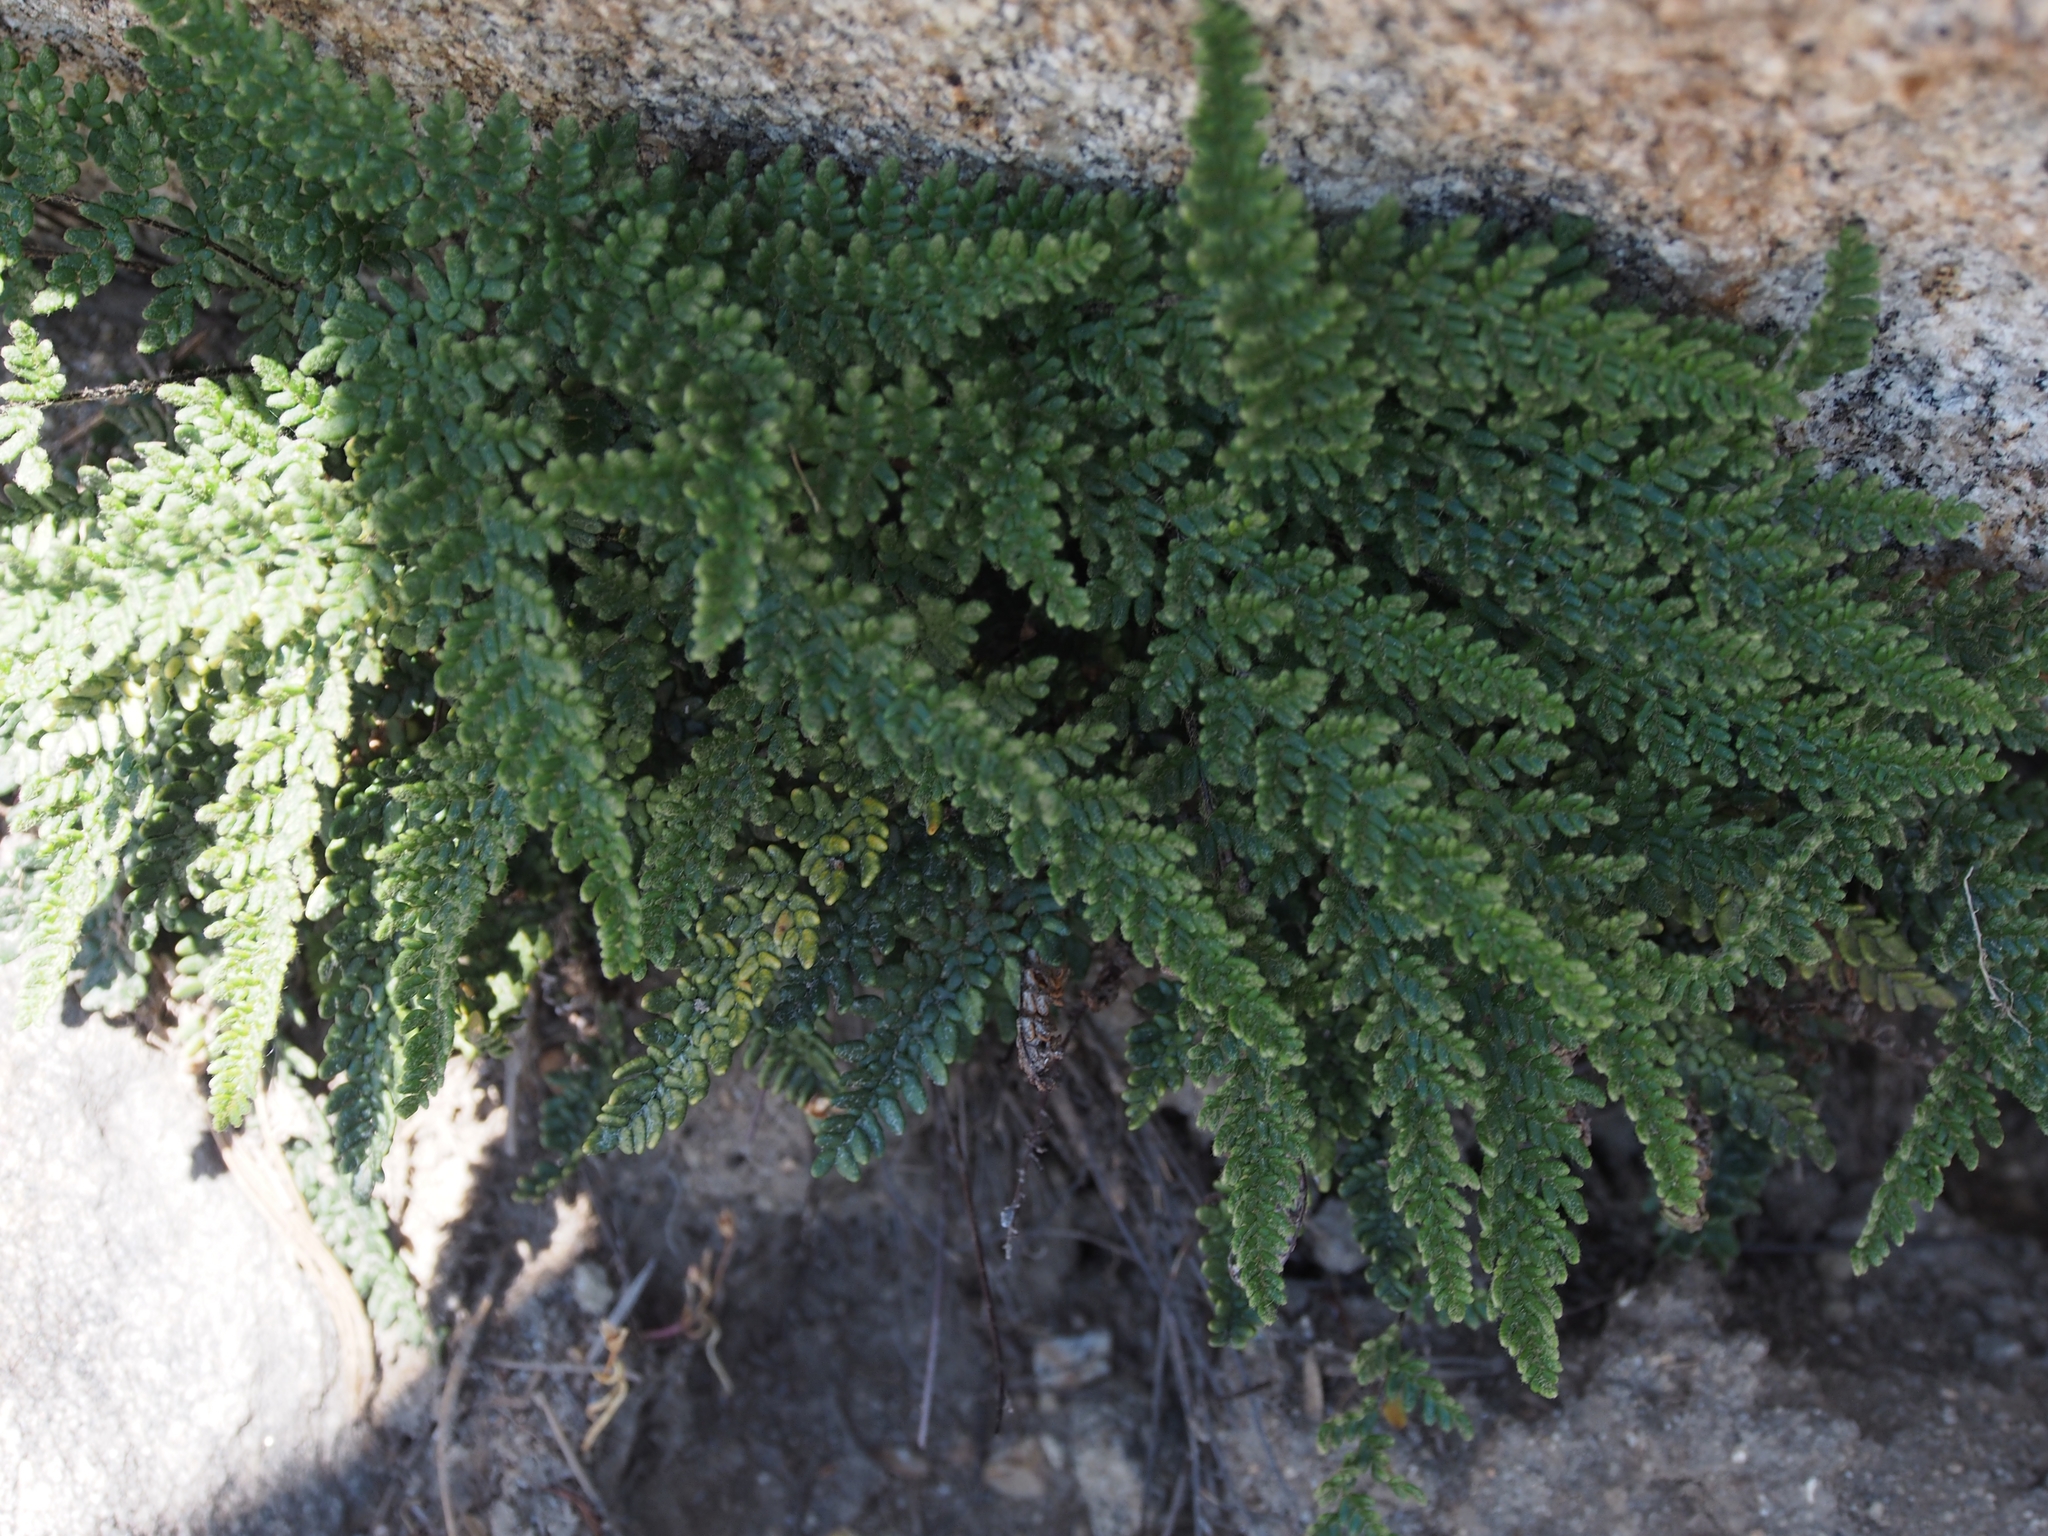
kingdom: Plantae
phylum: Tracheophyta
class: Polypodiopsida
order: Polypodiales
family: Pteridaceae
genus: Myriopteris
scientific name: Myriopteris gracillima
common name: Lace fern
